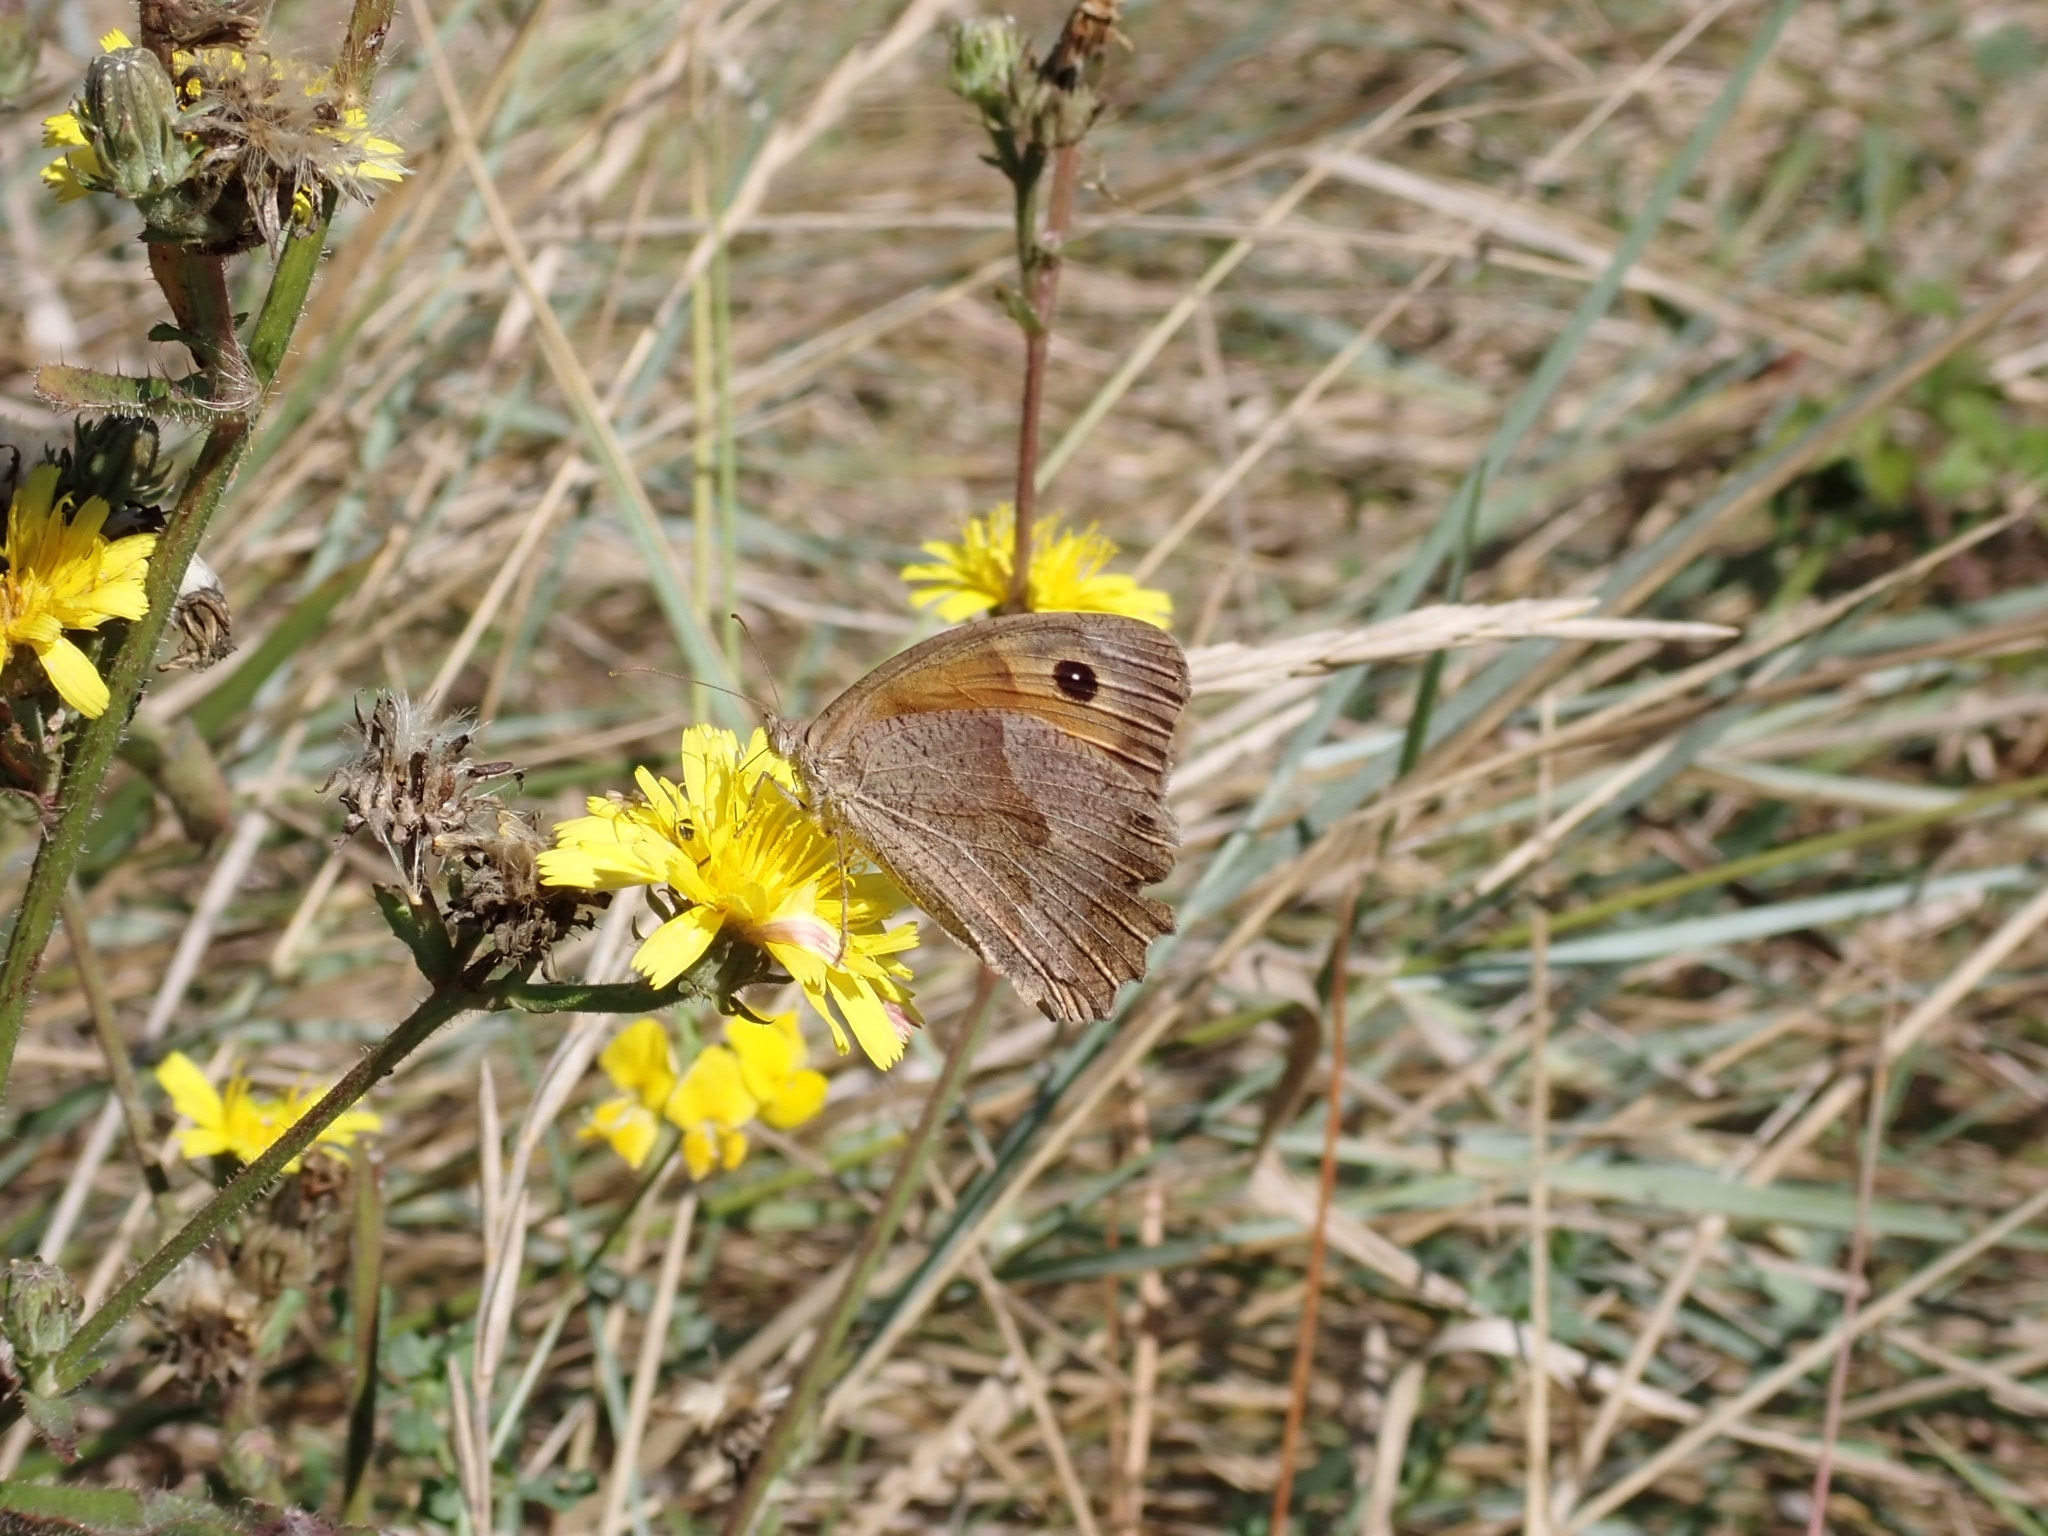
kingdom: Animalia
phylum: Arthropoda
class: Insecta
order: Lepidoptera
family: Nymphalidae
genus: Maniola
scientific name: Maniola jurtina
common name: Meadow brown
